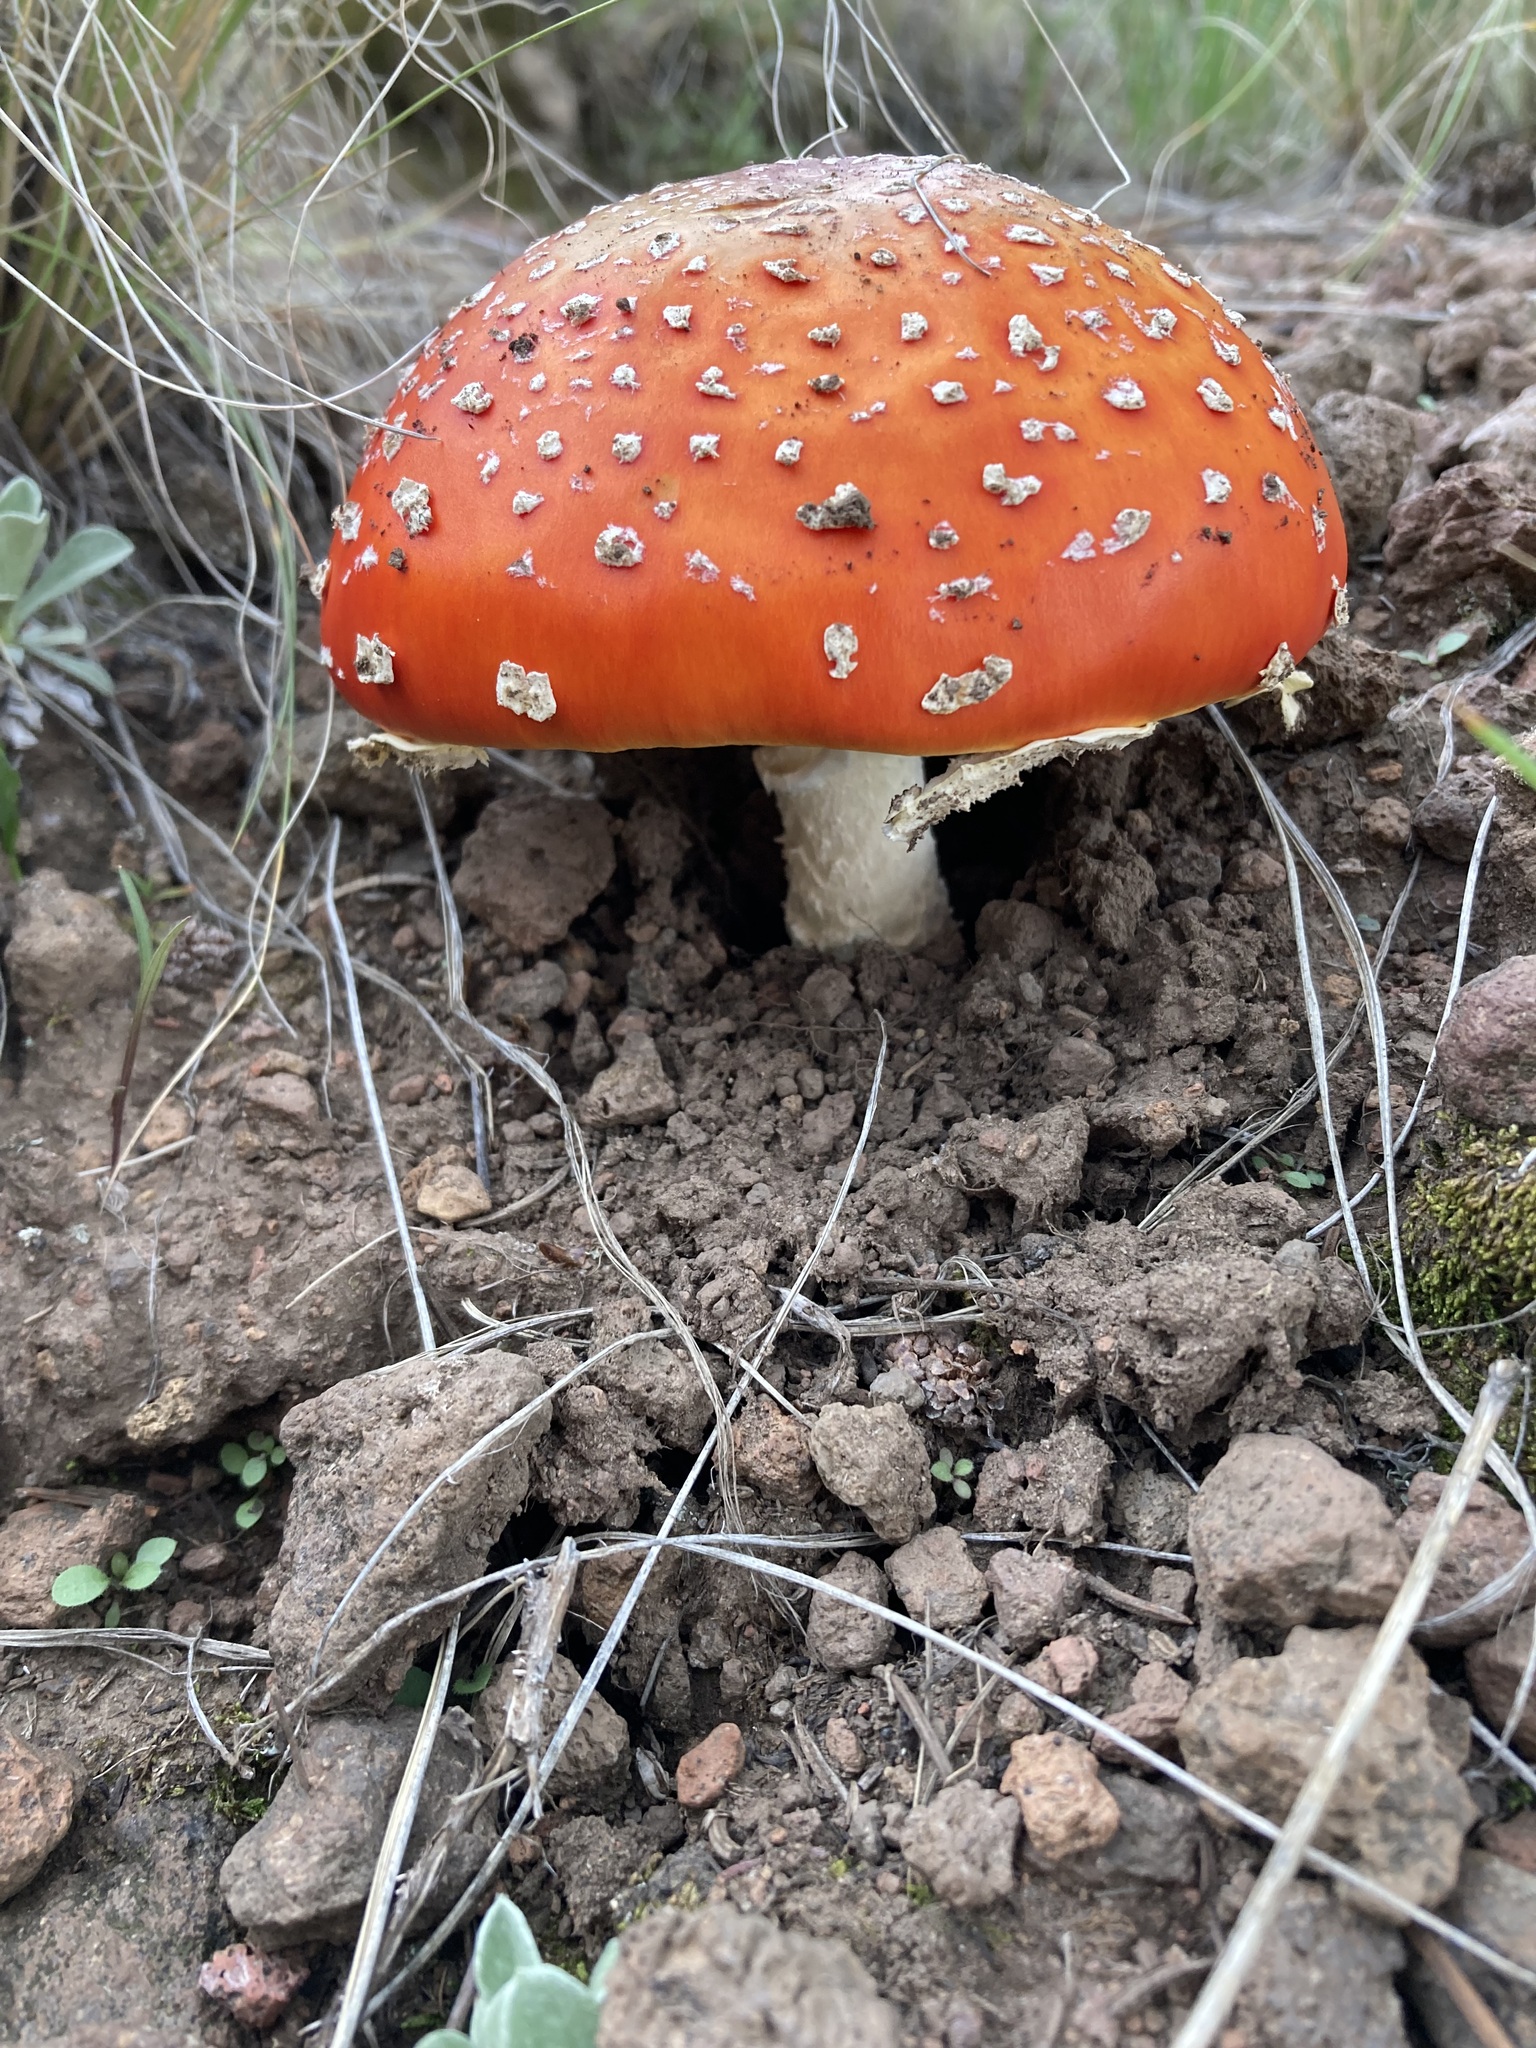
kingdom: Fungi
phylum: Basidiomycota
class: Agaricomycetes
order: Agaricales
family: Amanitaceae
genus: Amanita
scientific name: Amanita muscaria
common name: Fly agaric
